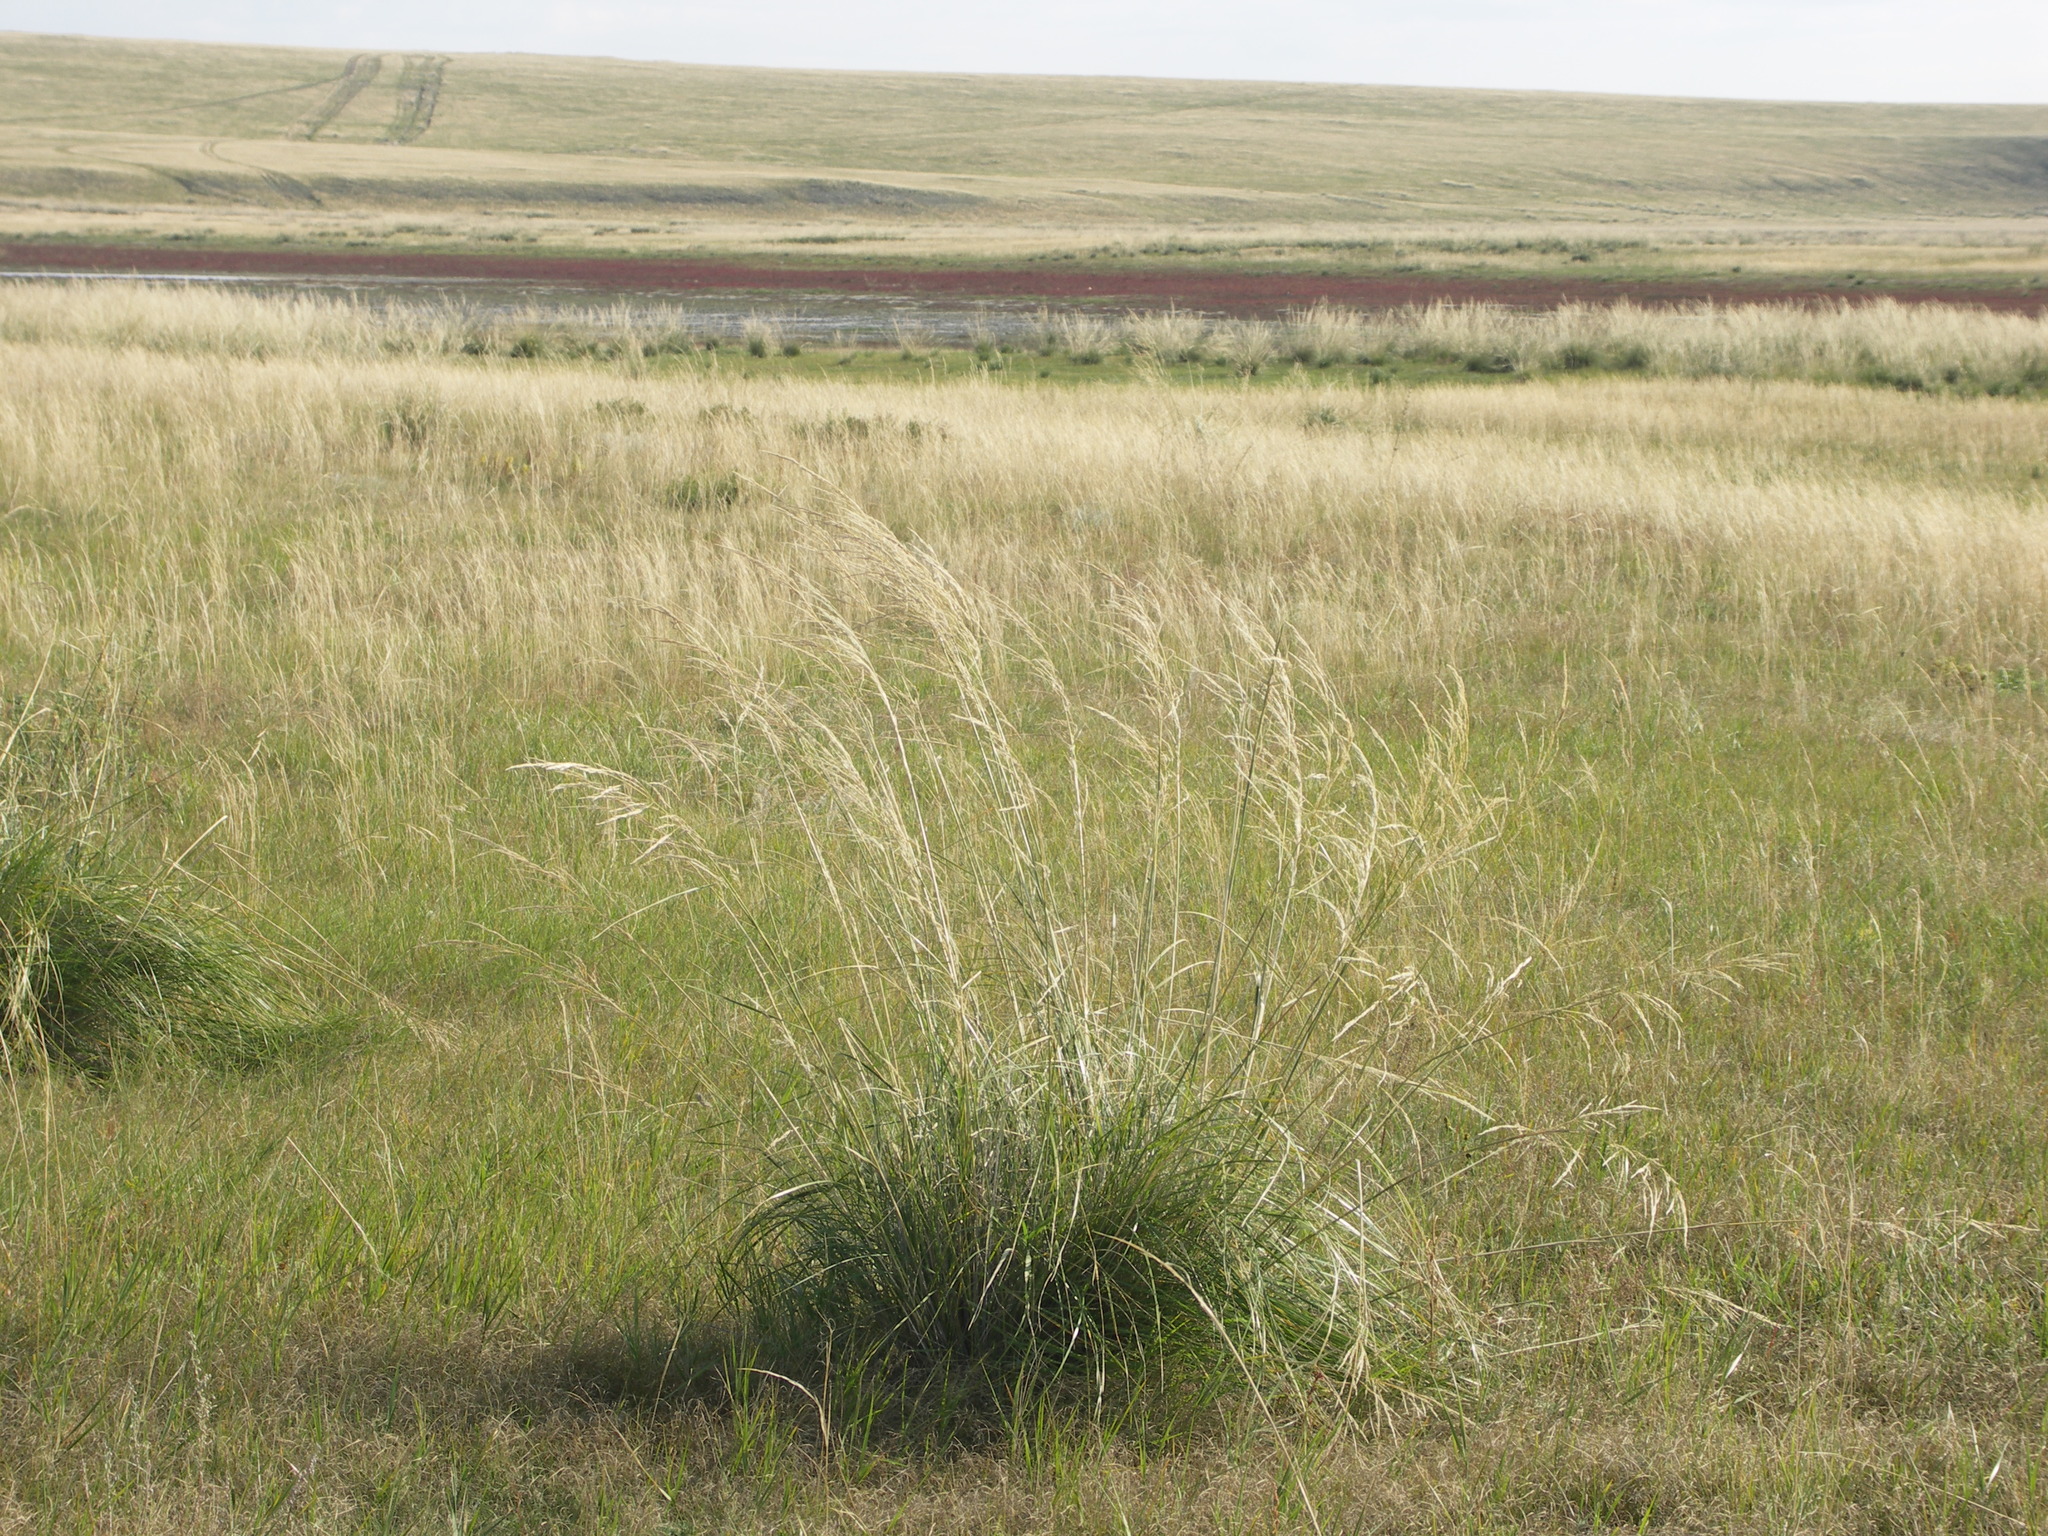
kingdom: Plantae
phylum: Tracheophyta
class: Liliopsida
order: Poales
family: Poaceae
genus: Neotrinia
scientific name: Neotrinia splendens
